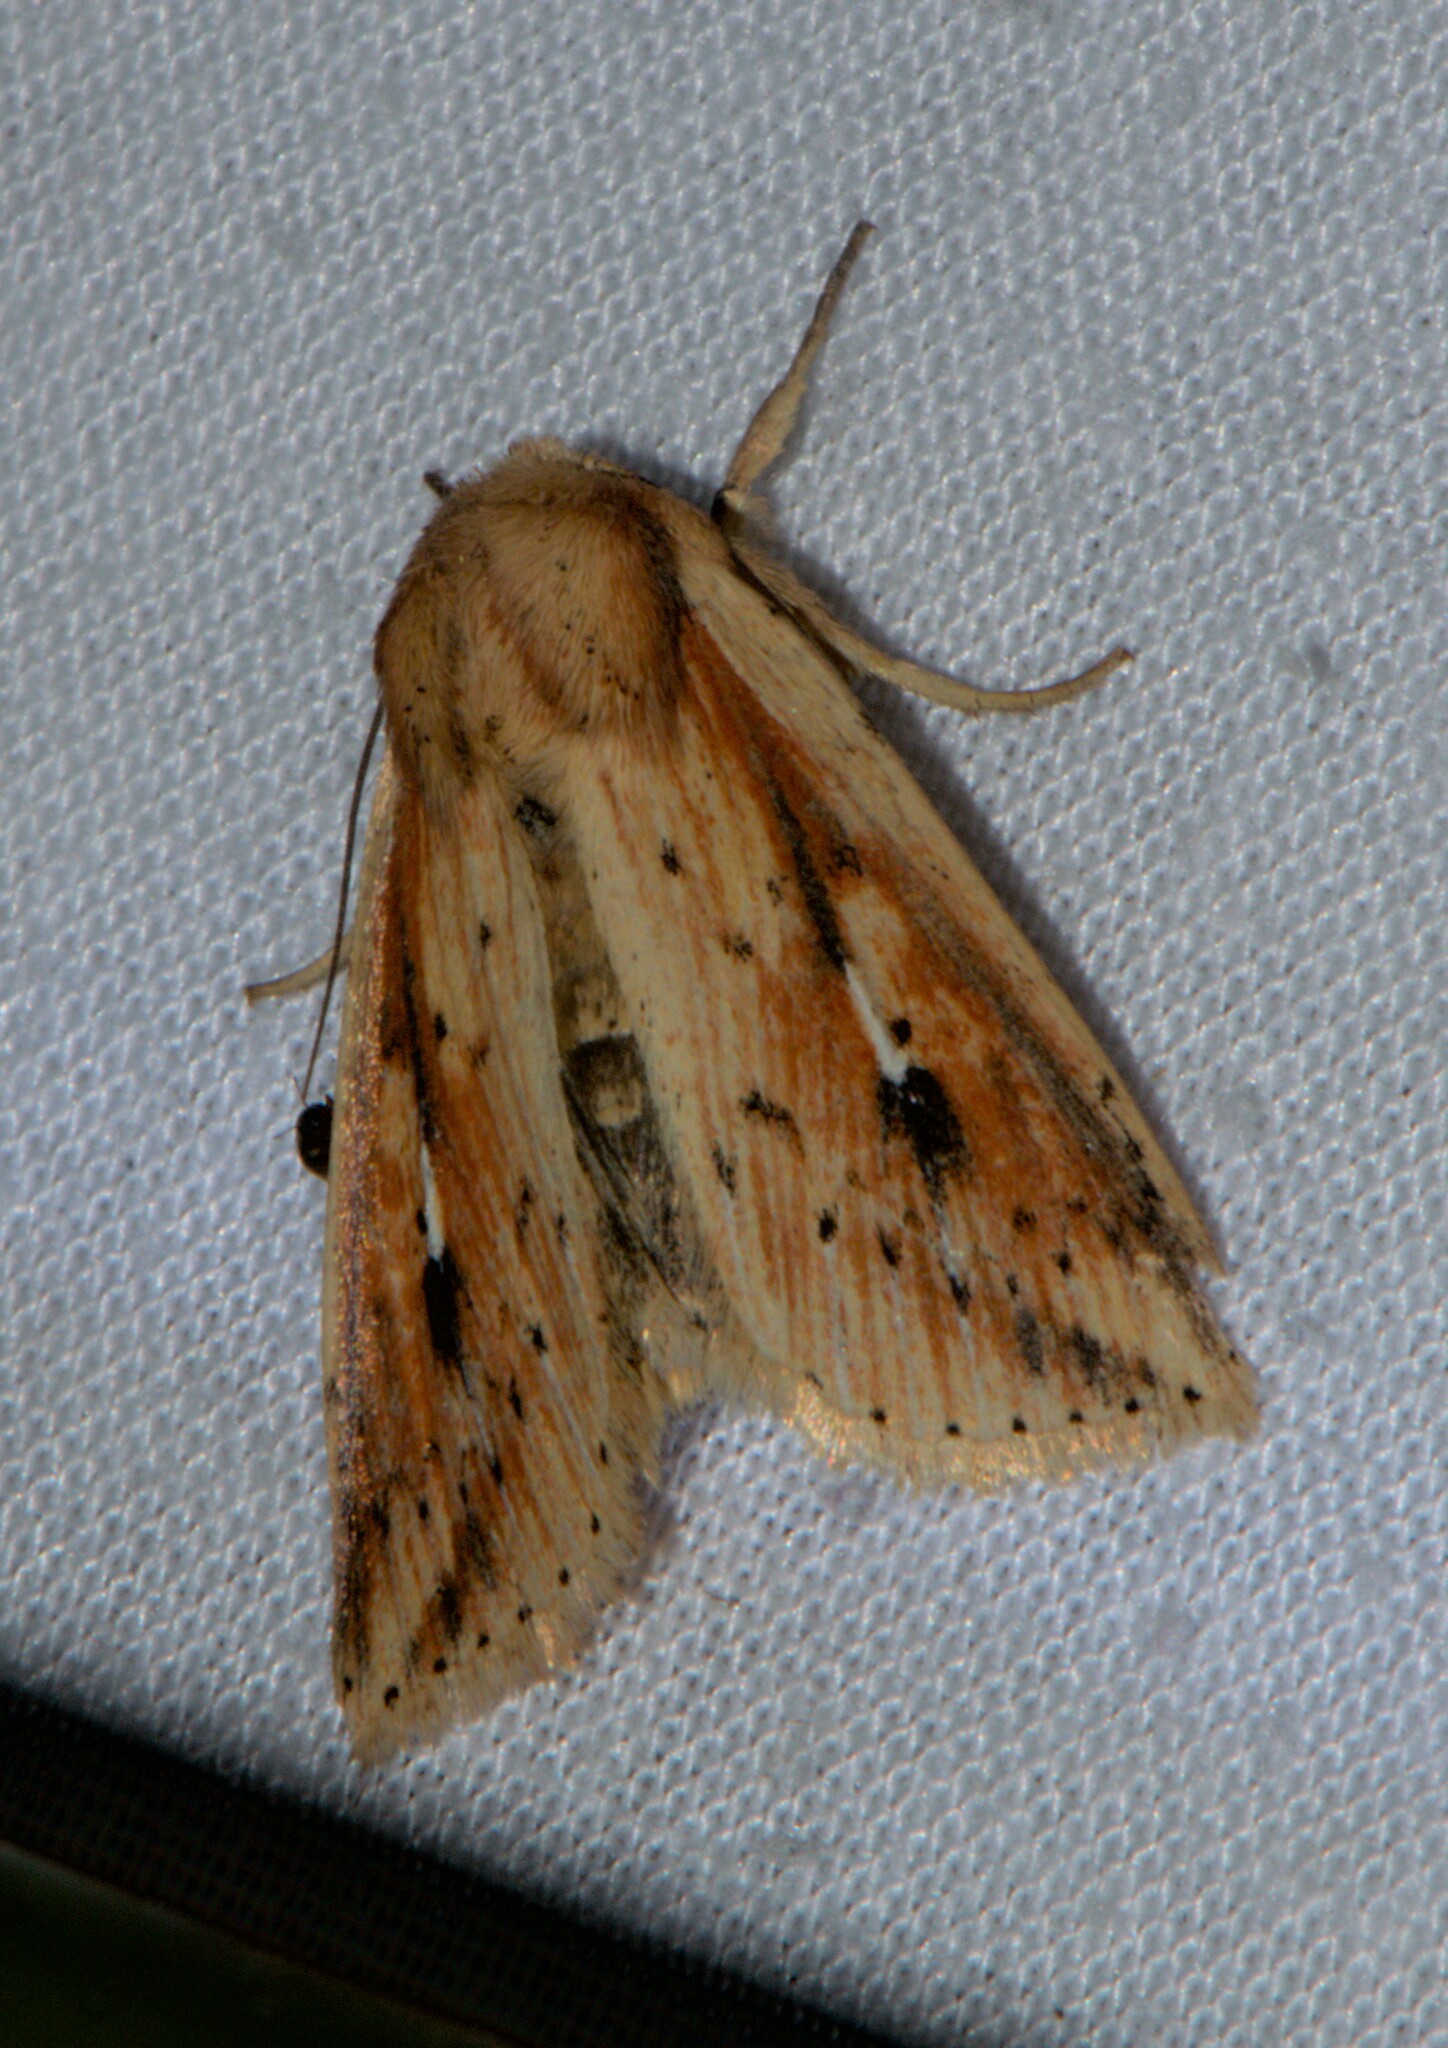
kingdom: Animalia
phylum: Arthropoda
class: Insecta
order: Lepidoptera
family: Noctuidae
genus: Mythimna
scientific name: Mythimna dharma
